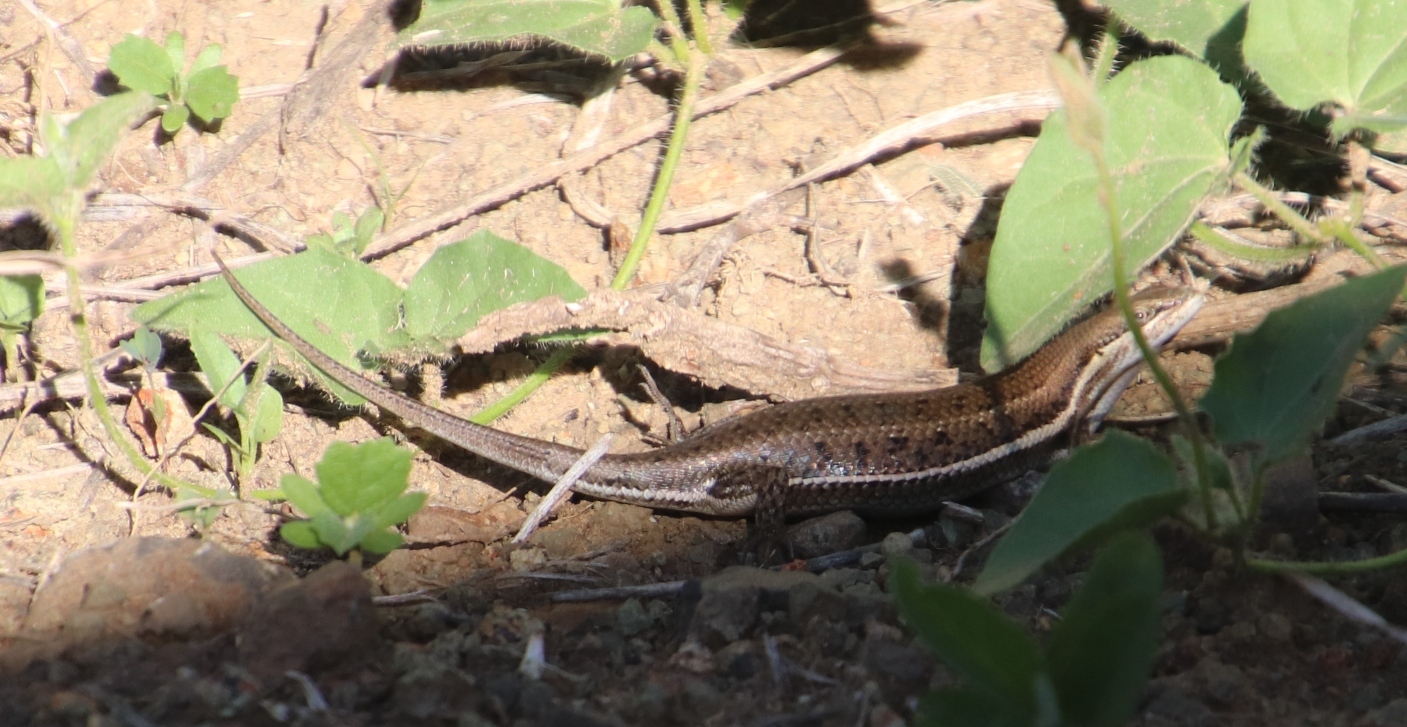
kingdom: Animalia
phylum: Chordata
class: Squamata
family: Scincidae
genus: Trachylepis
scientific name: Trachylepis varia
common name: Eastern variable skink
